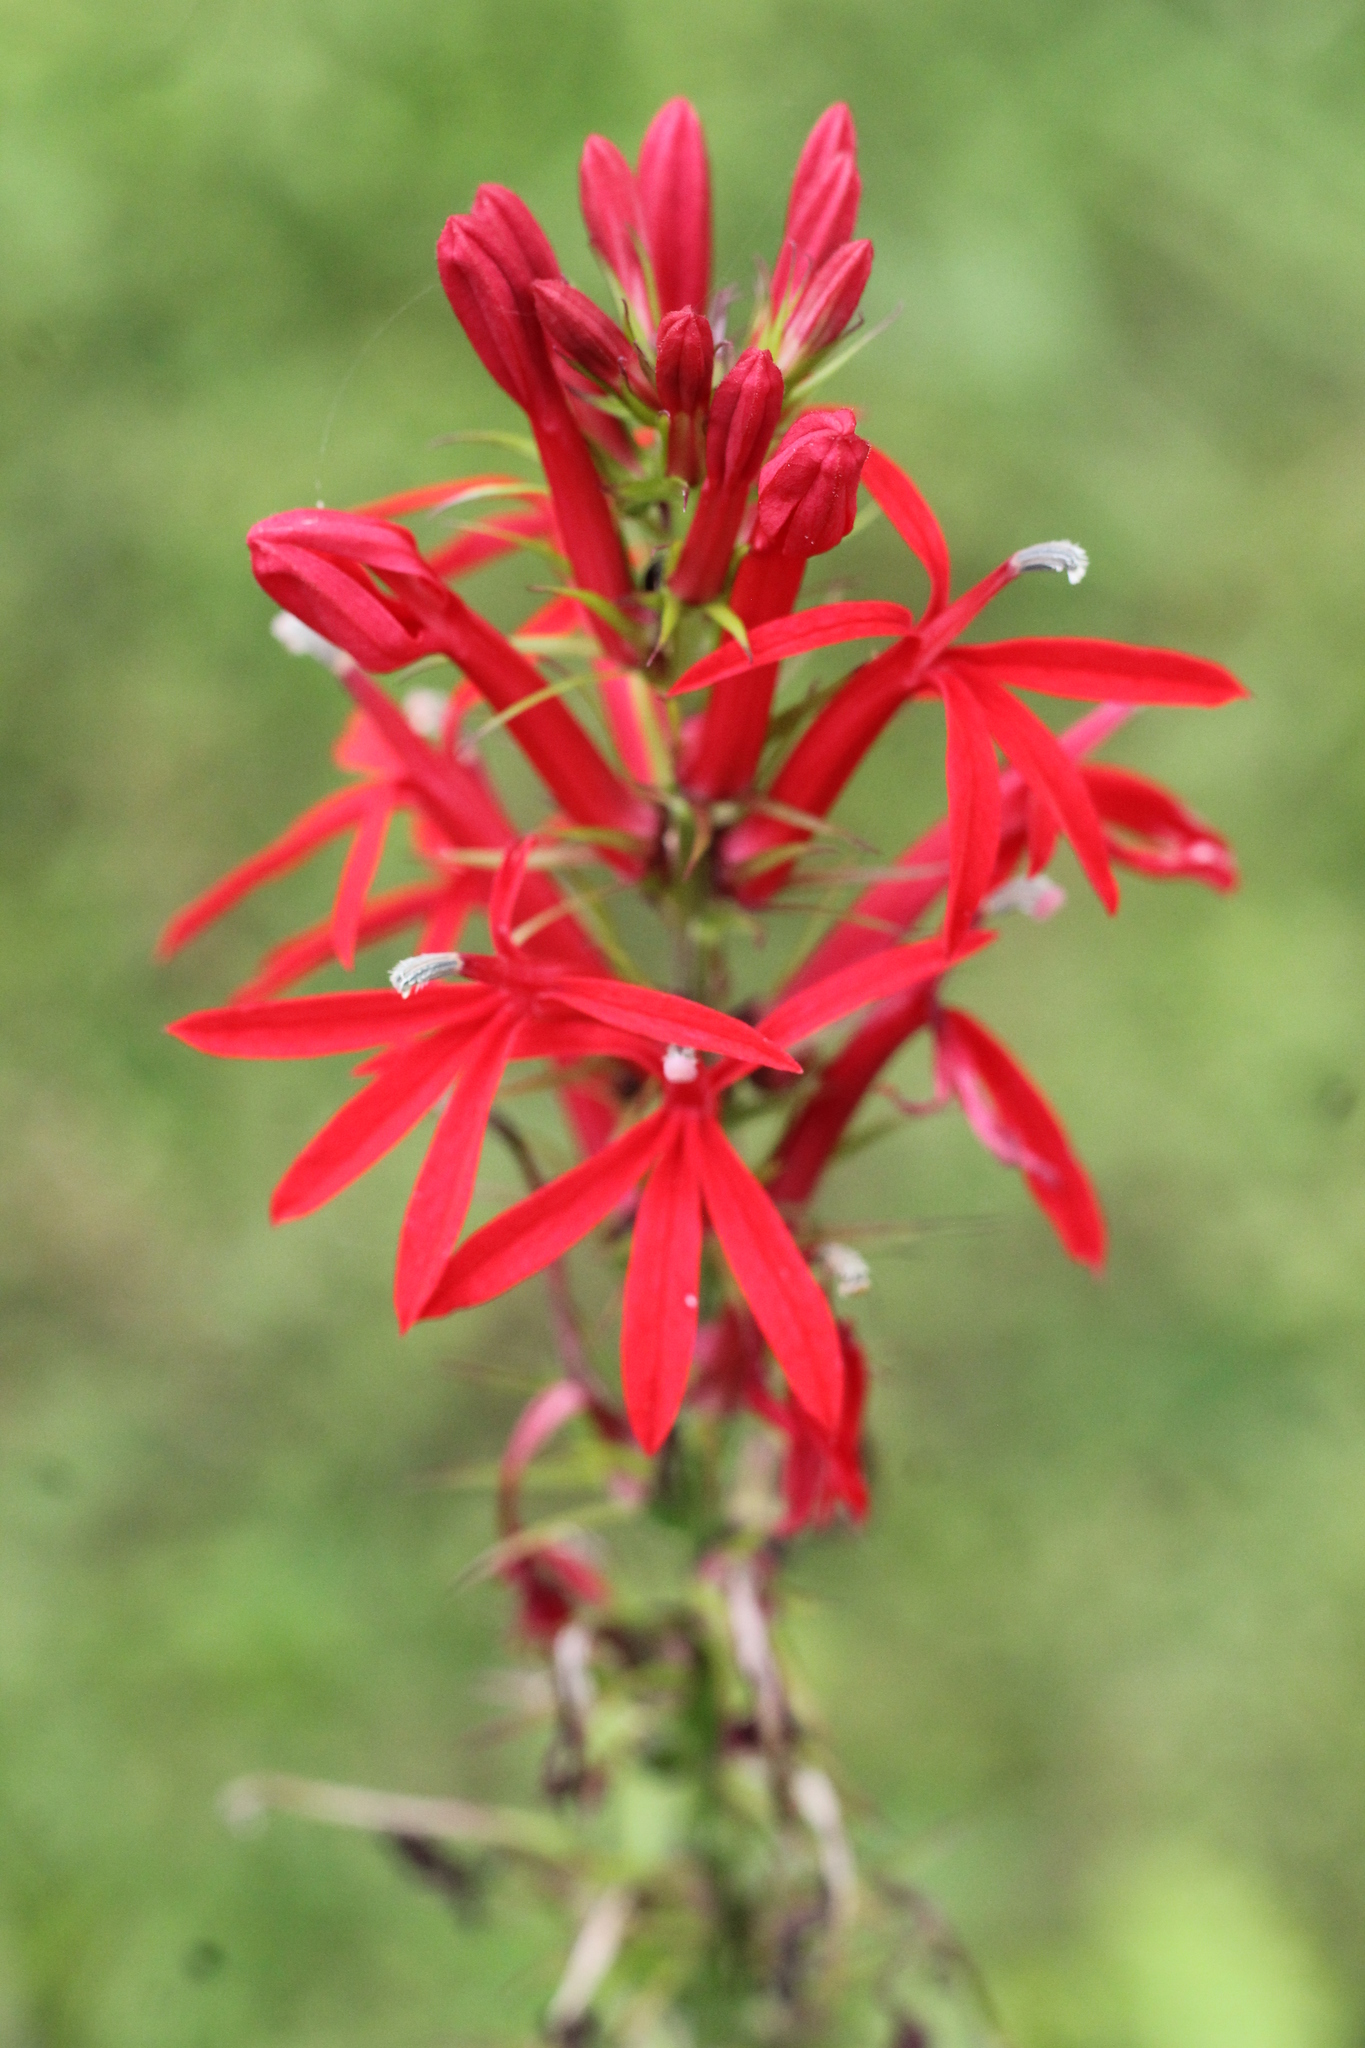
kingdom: Plantae
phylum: Tracheophyta
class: Magnoliopsida
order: Asterales
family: Campanulaceae
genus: Lobelia
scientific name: Lobelia cardinalis
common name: Cardinal flower
